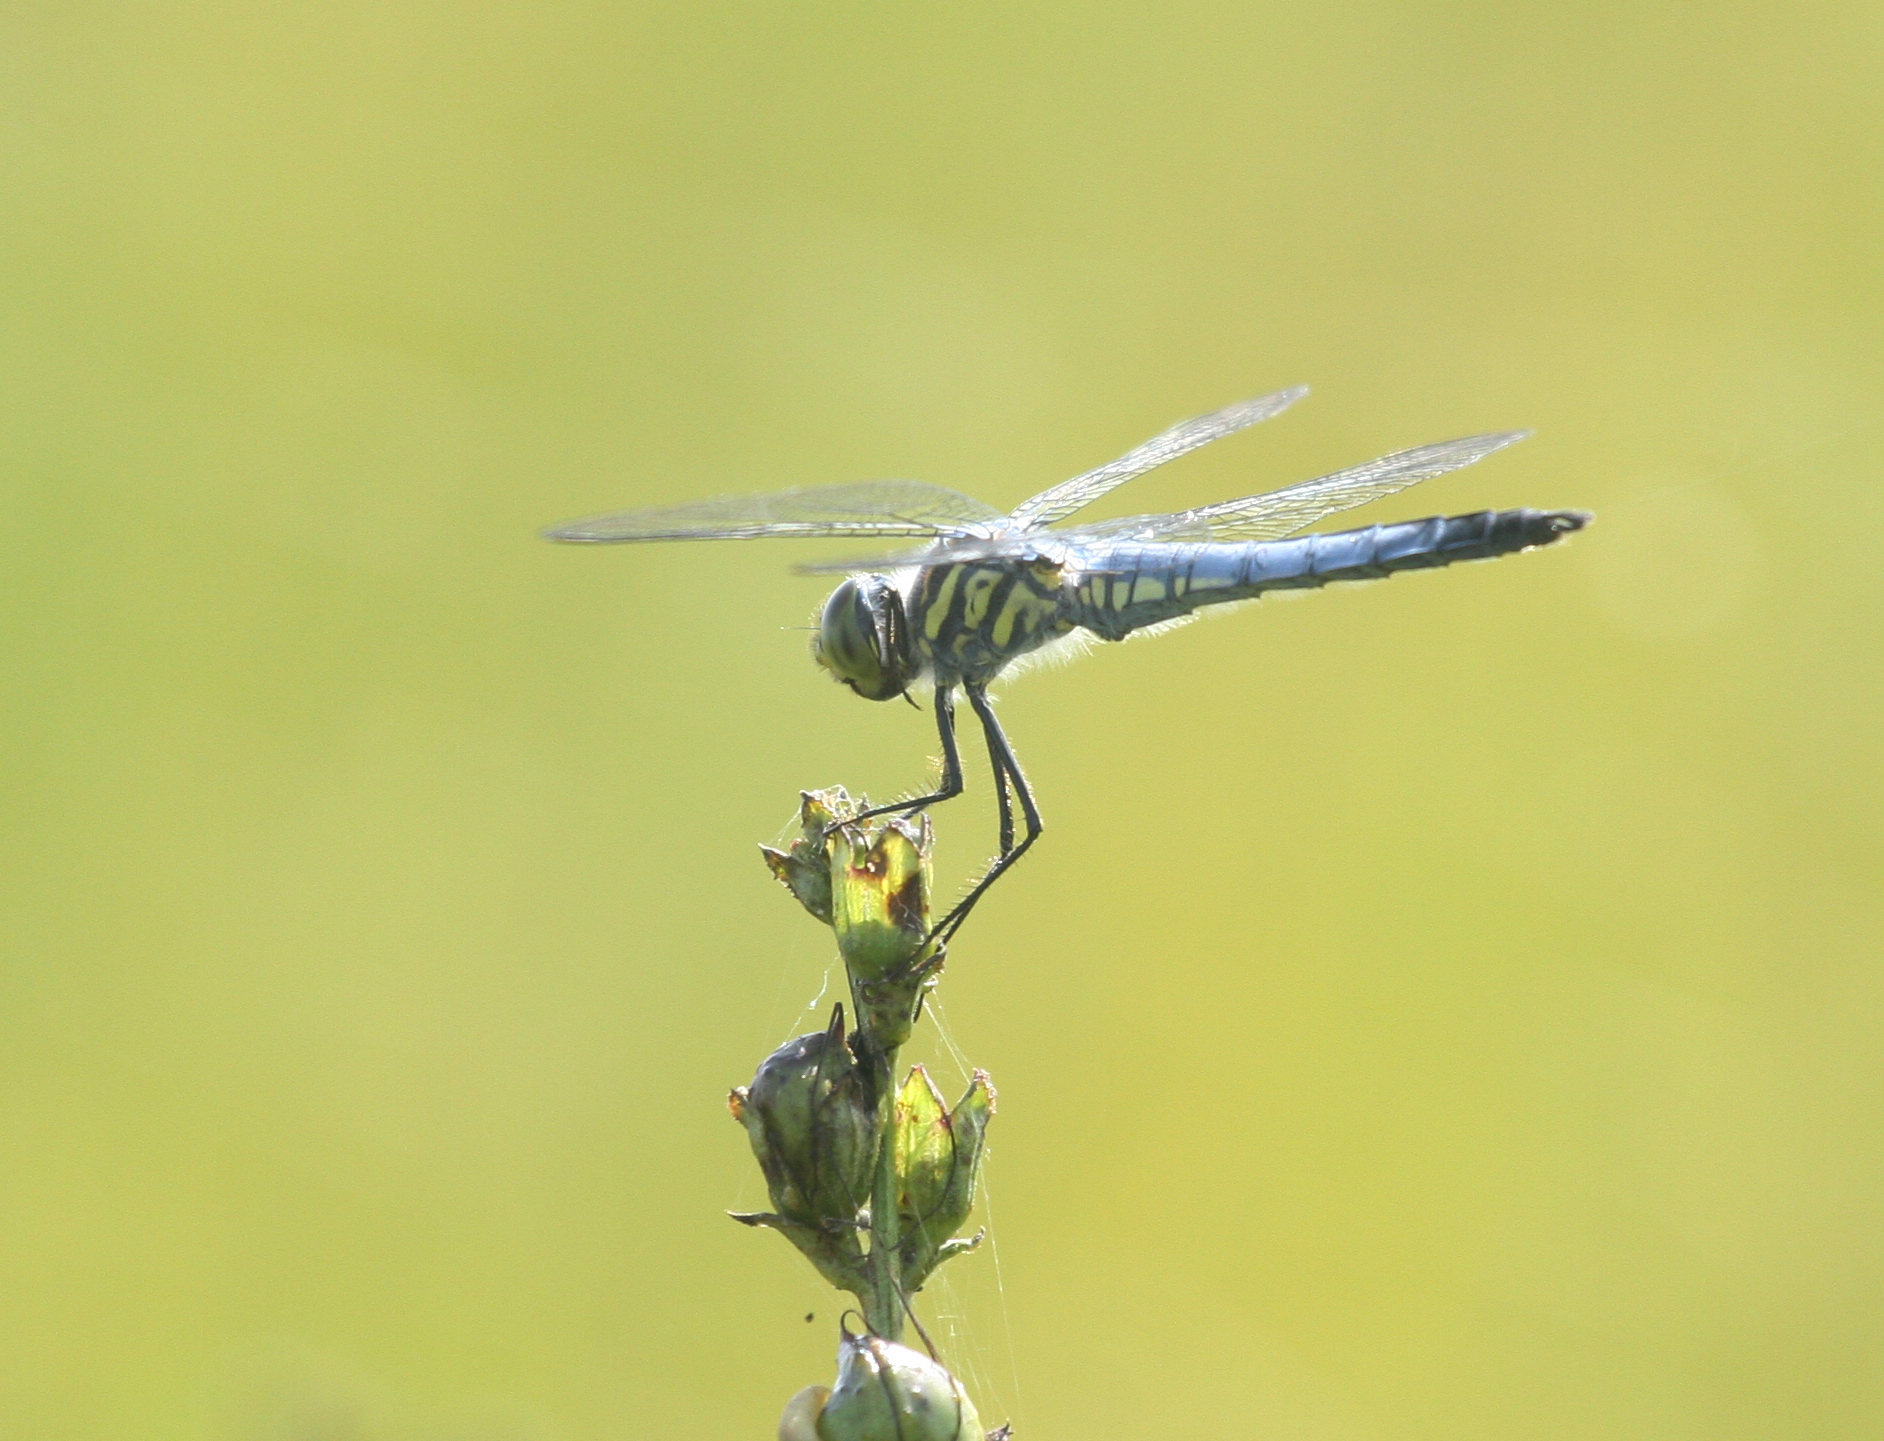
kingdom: Animalia
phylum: Arthropoda
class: Insecta
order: Odonata
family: Libellulidae
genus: Deielia
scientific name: Deielia phaon
